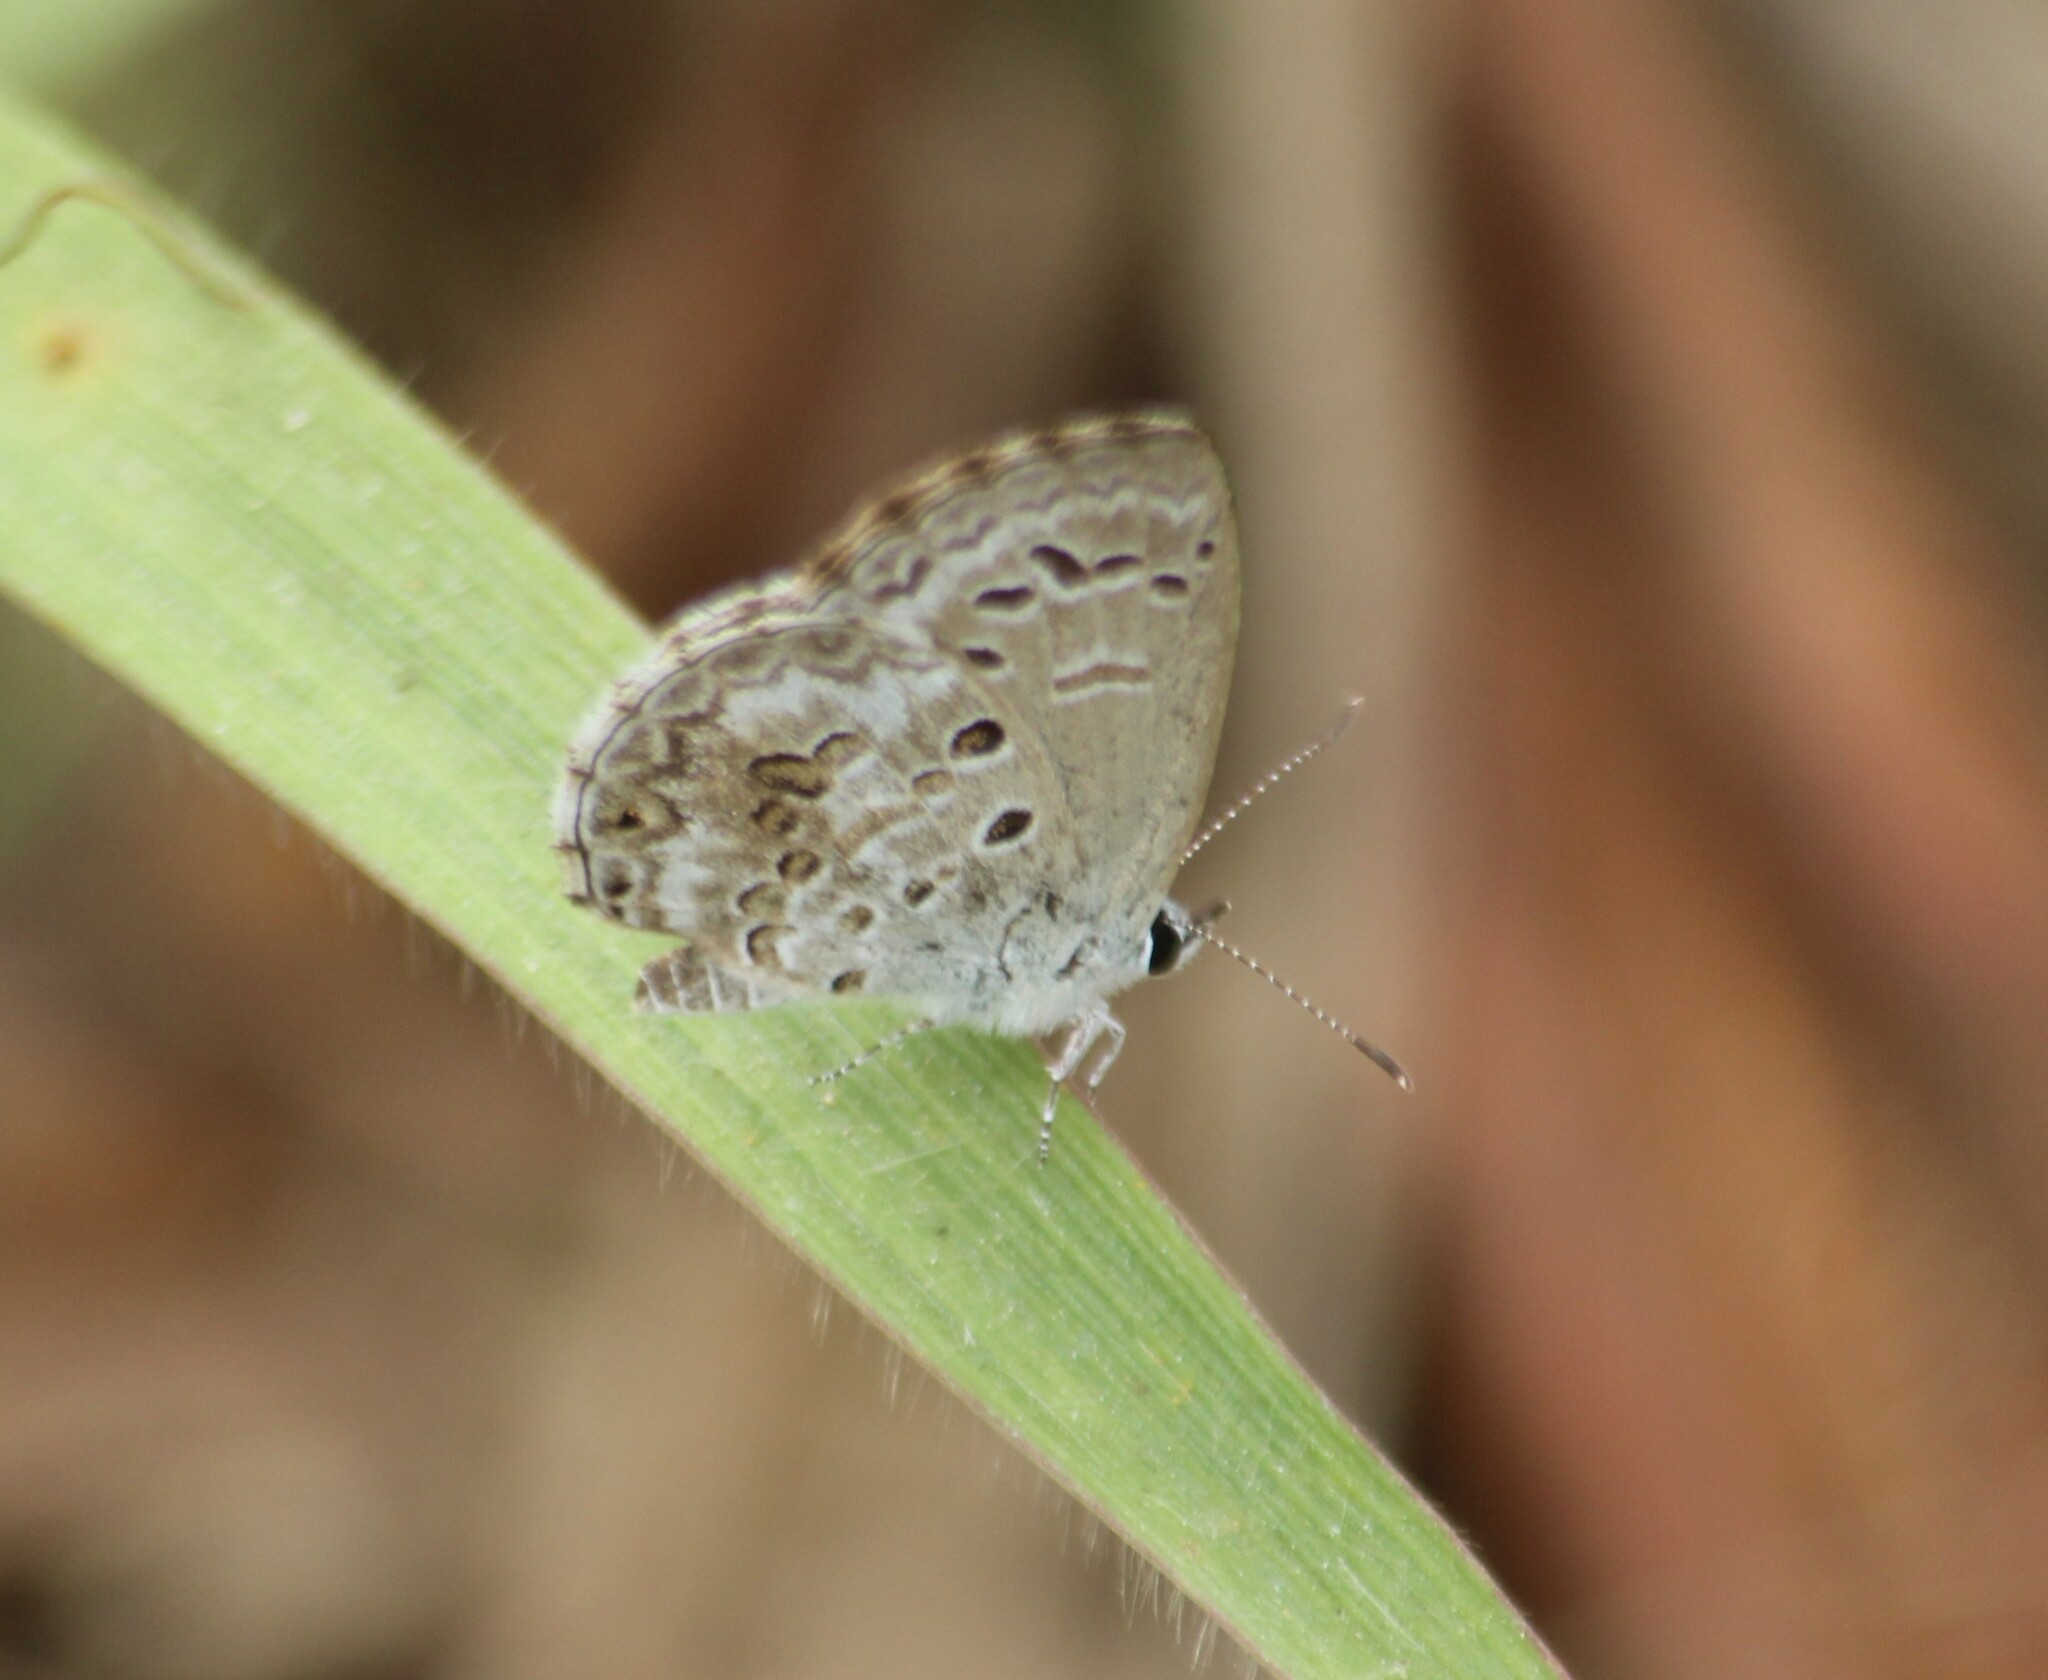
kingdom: Animalia
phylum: Arthropoda
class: Insecta
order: Lepidoptera
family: Lycaenidae
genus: Chilades
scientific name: Chilades laius
